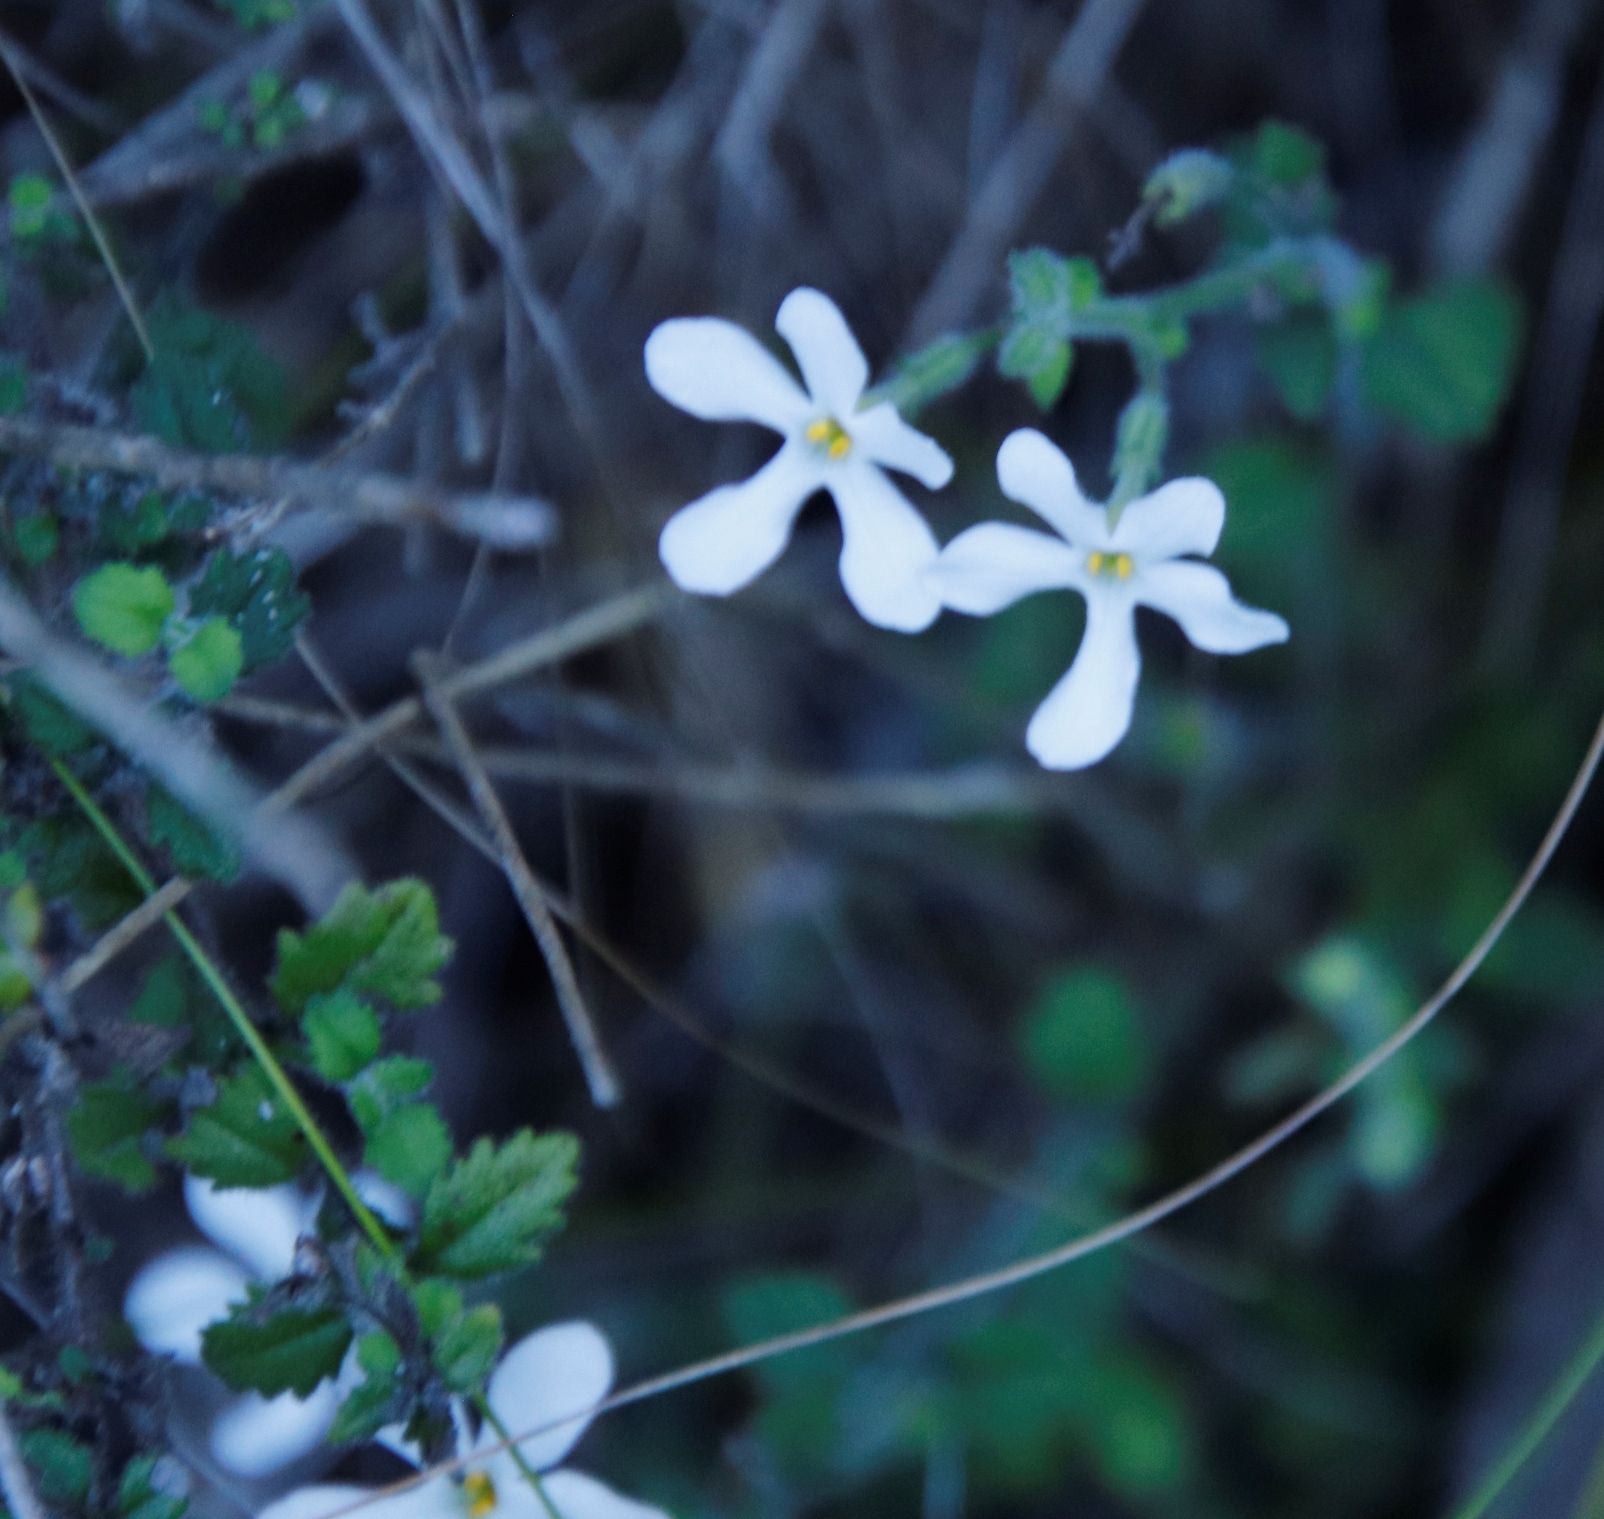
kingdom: Plantae
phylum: Tracheophyta
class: Magnoliopsida
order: Lamiales
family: Scrophulariaceae
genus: Chaenostoma
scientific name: Chaenostoma hispidum
